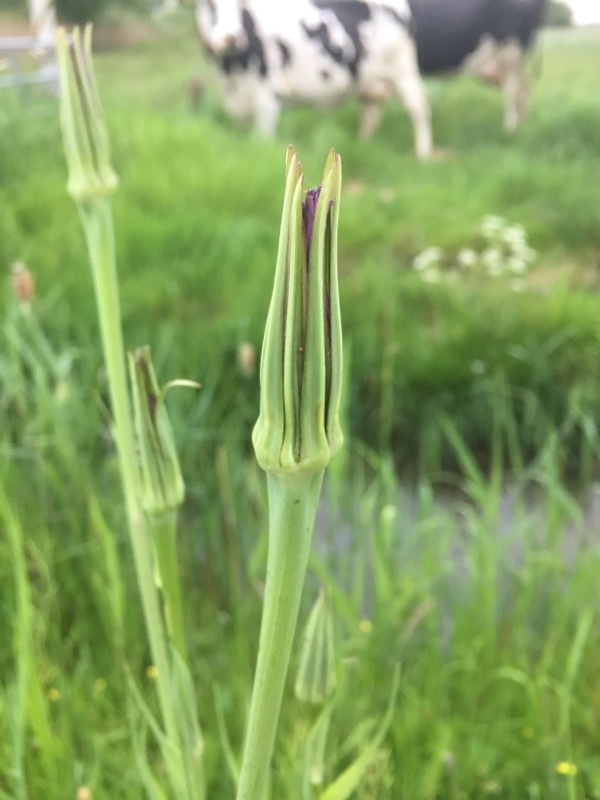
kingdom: Plantae
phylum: Tracheophyta
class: Magnoliopsida
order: Asterales
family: Asteraceae
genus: Tragopogon
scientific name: Tragopogon porrifolius
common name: Salsify
